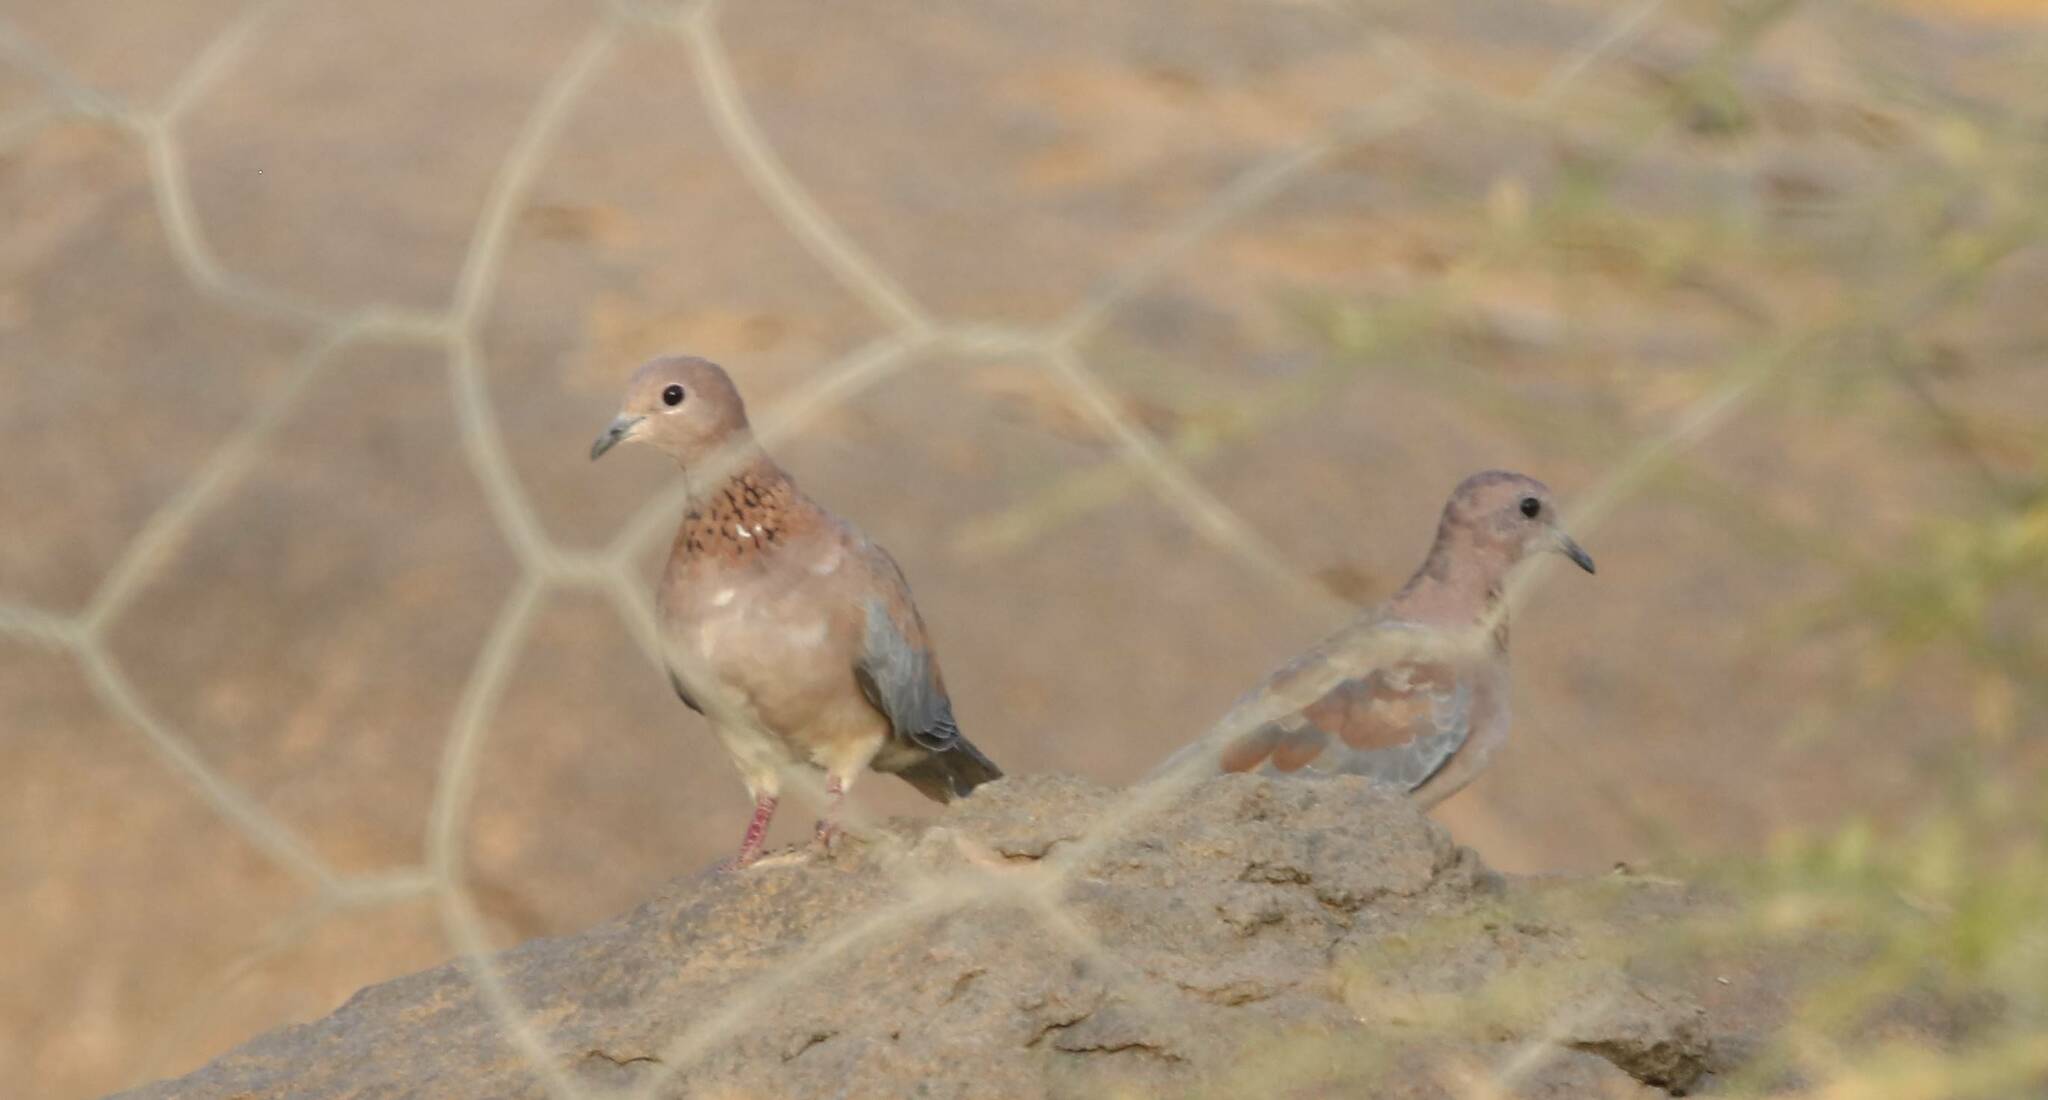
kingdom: Animalia
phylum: Chordata
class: Aves
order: Columbiformes
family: Columbidae
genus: Spilopelia
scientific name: Spilopelia senegalensis
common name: Laughing dove
